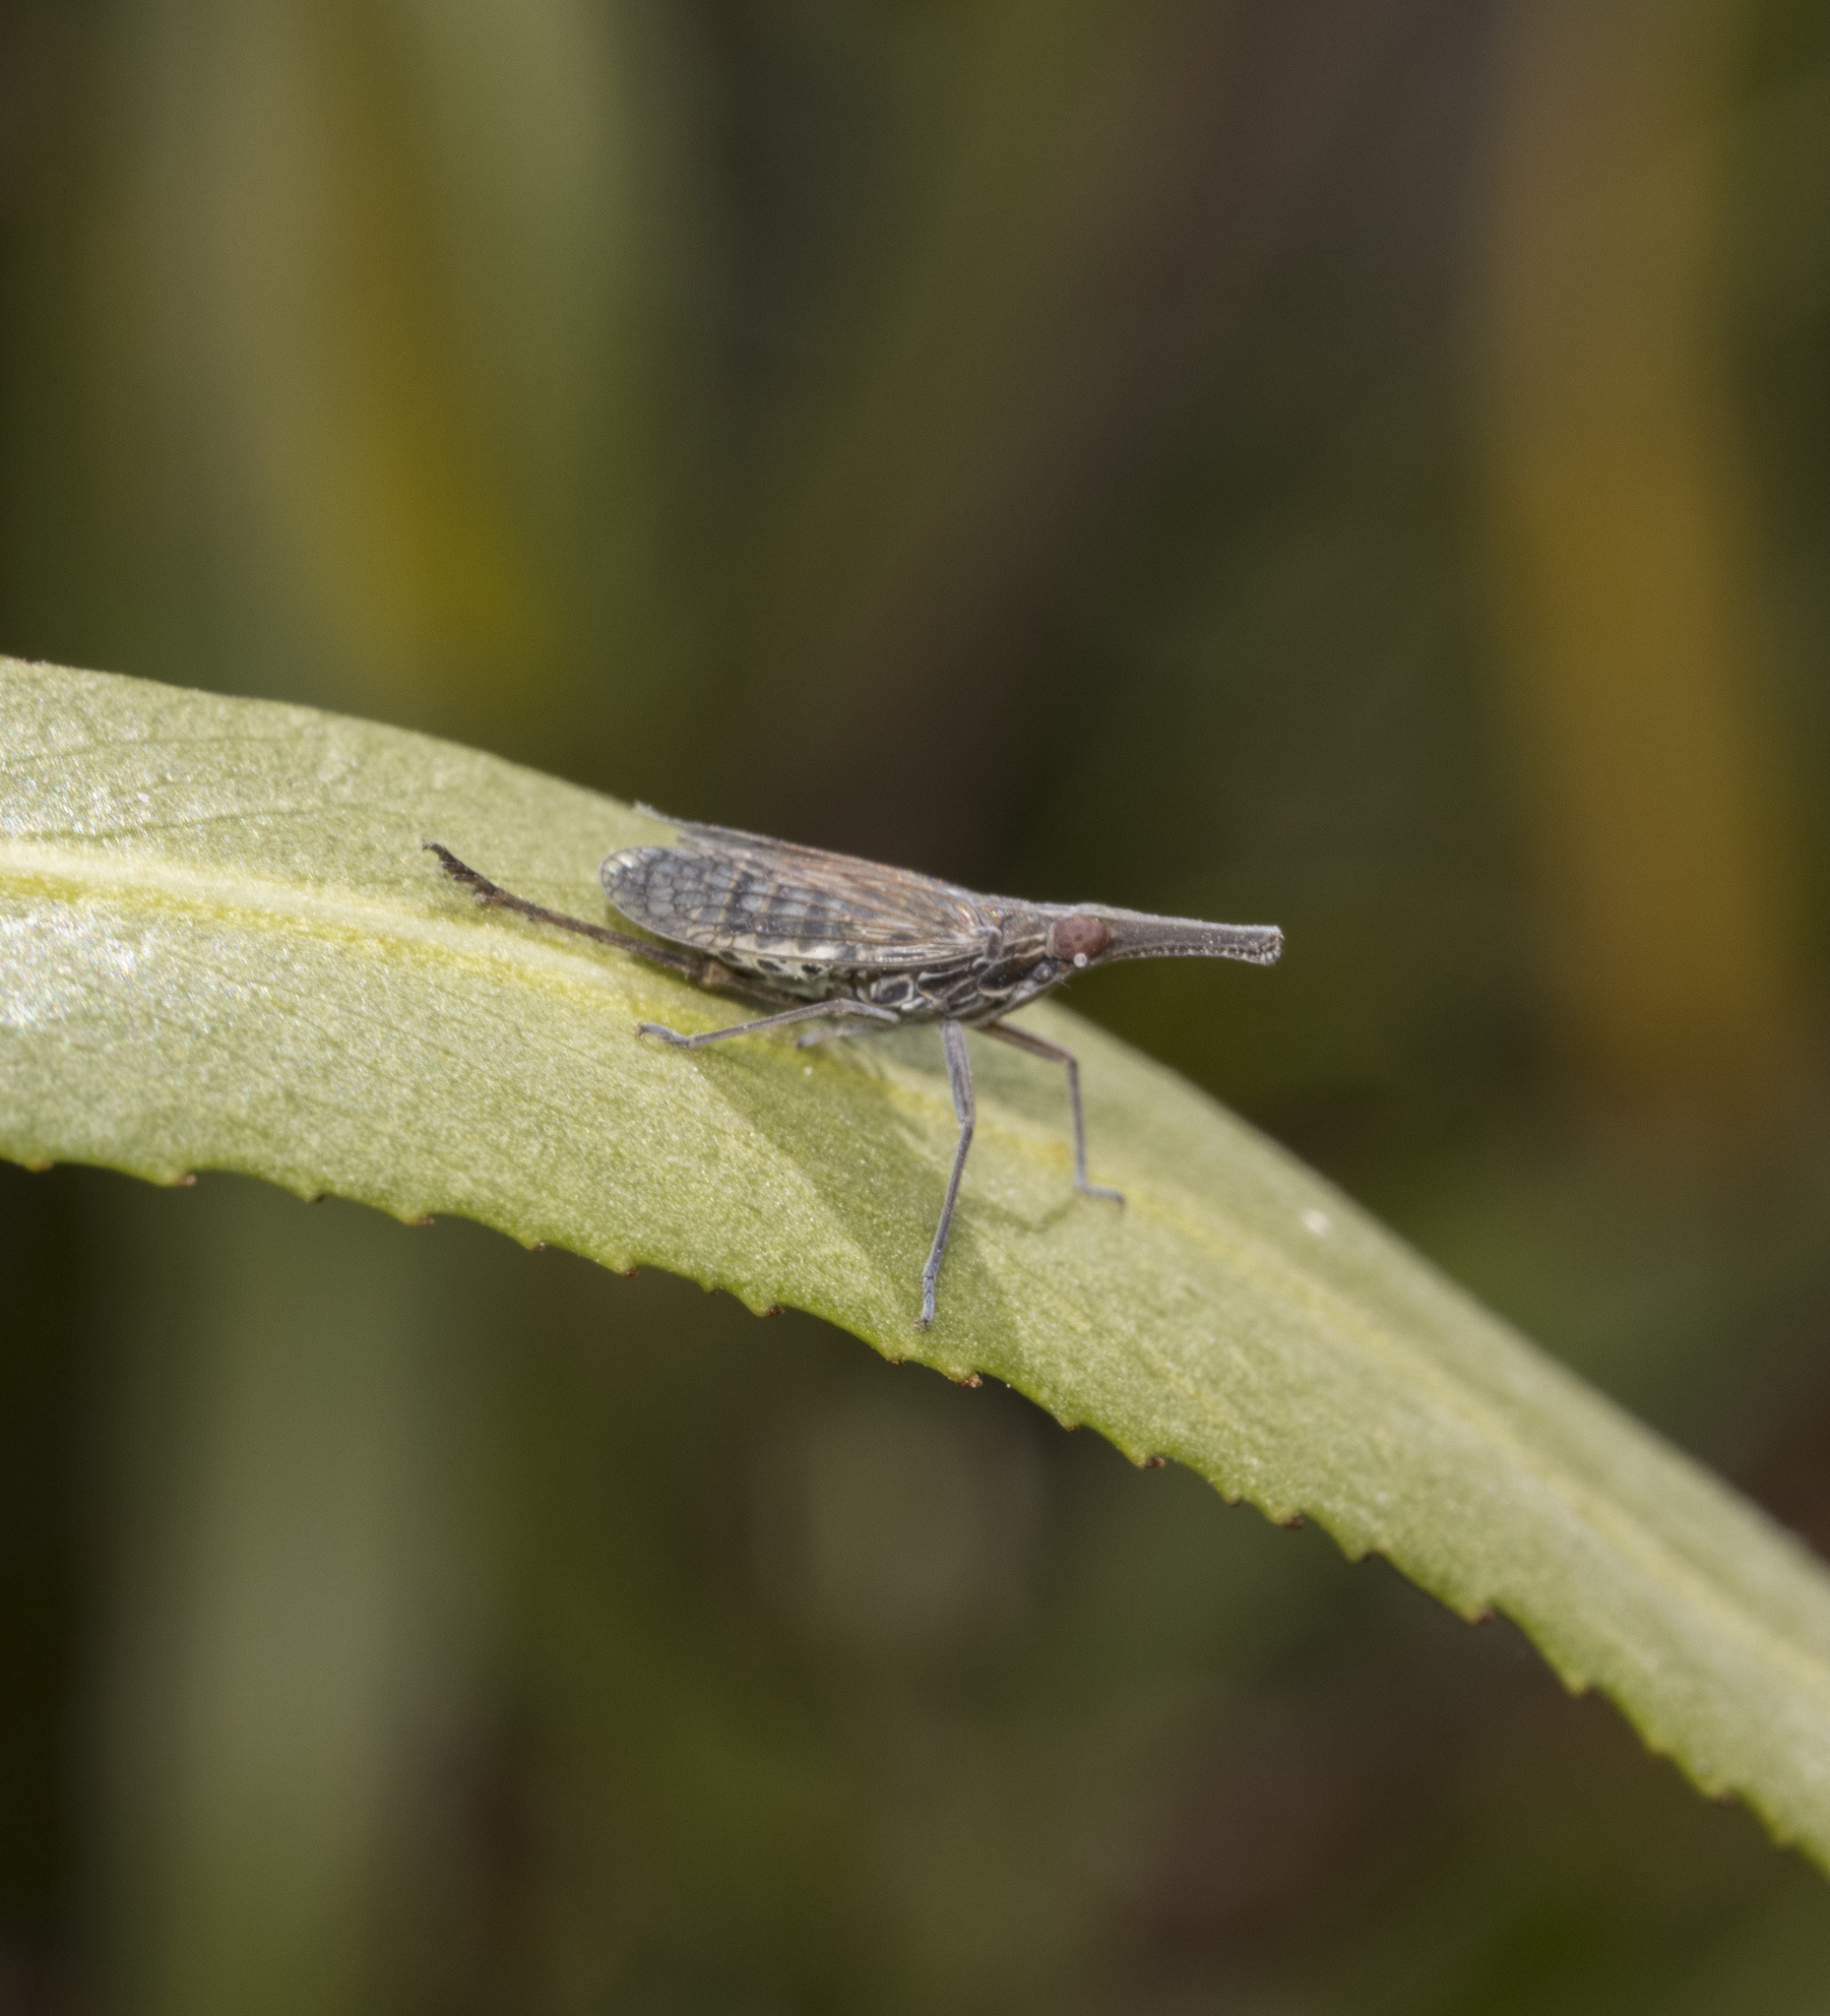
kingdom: Animalia
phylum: Arthropoda
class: Insecta
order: Hemiptera
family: Dictyopharidae
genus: Xenochasma
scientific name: Xenochasma rectirostris
